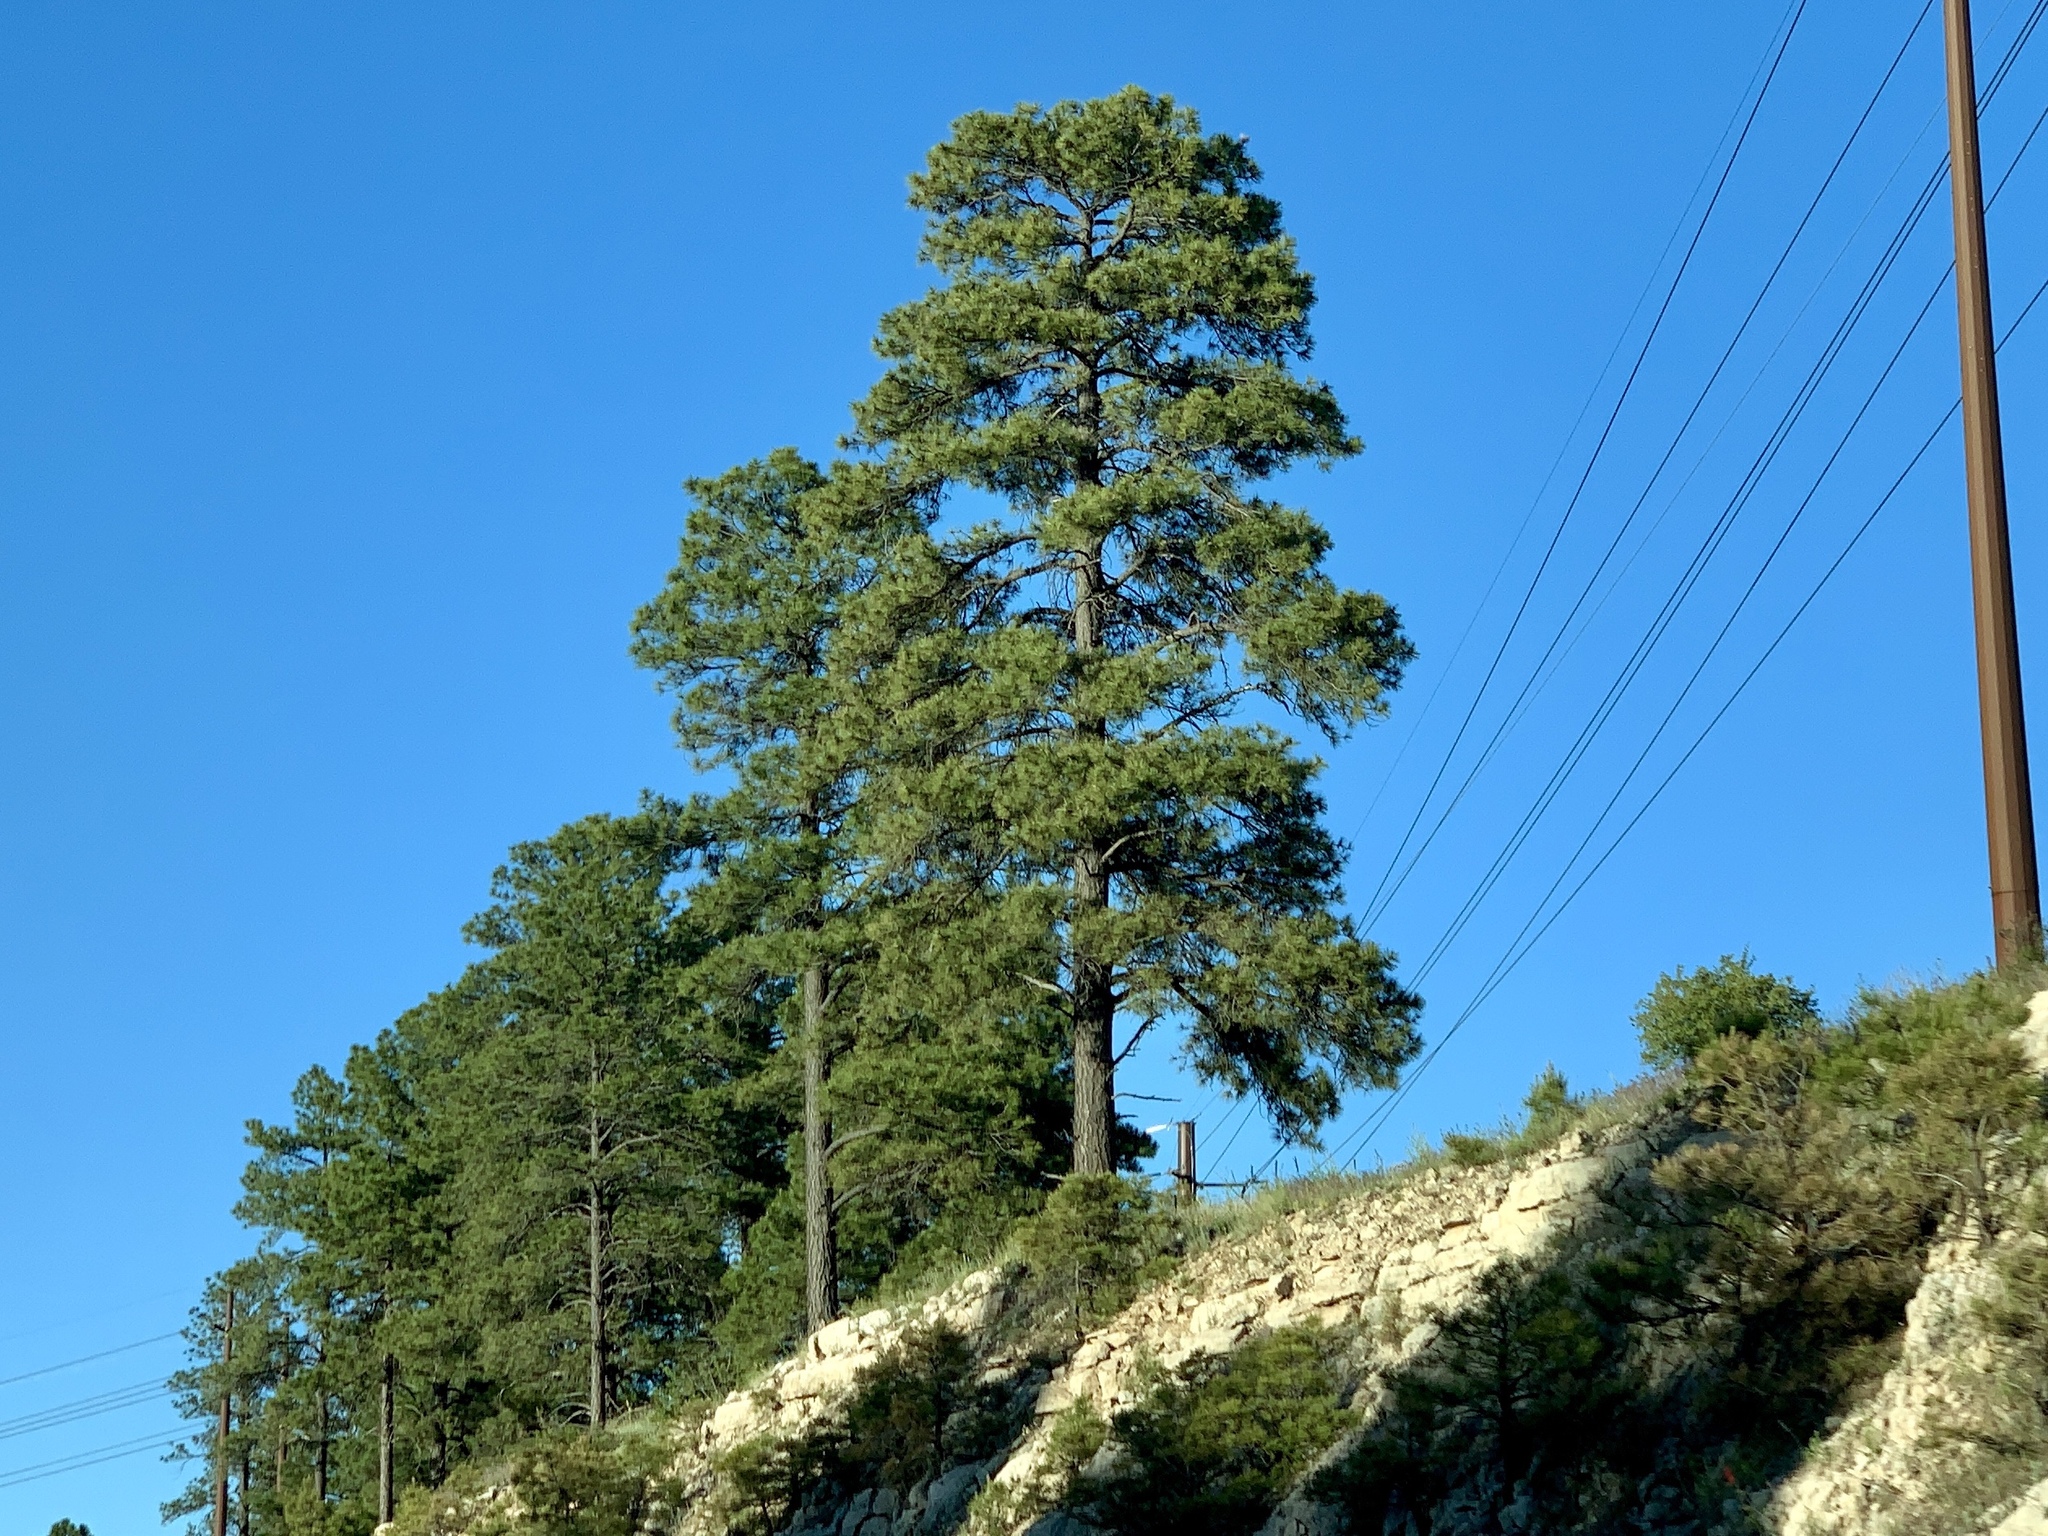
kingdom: Plantae
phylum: Tracheophyta
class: Pinopsida
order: Pinales
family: Pinaceae
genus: Pinus
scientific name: Pinus ponderosa
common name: Western yellow-pine
